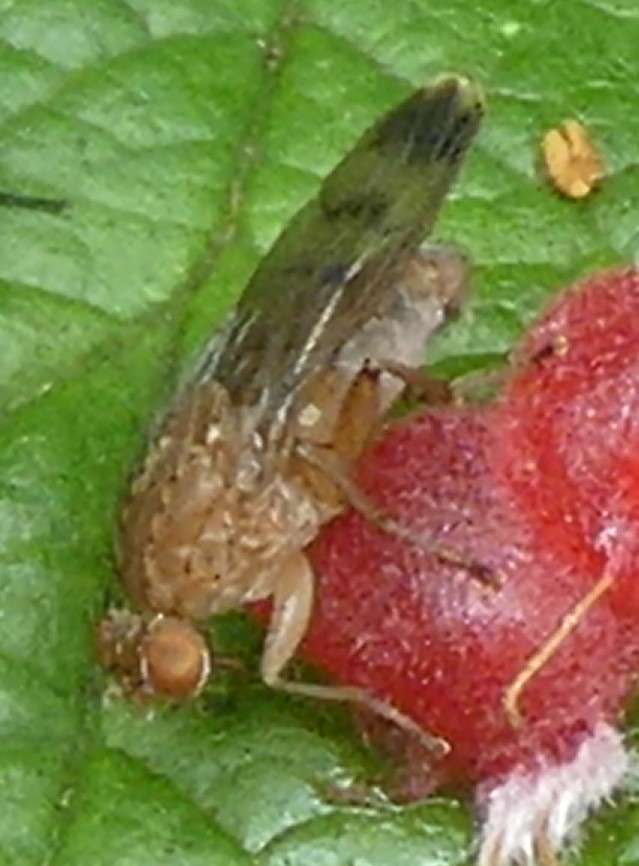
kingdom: Animalia
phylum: Arthropoda
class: Insecta
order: Diptera
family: Heleomyzidae
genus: Suillia
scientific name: Suillia variegata
